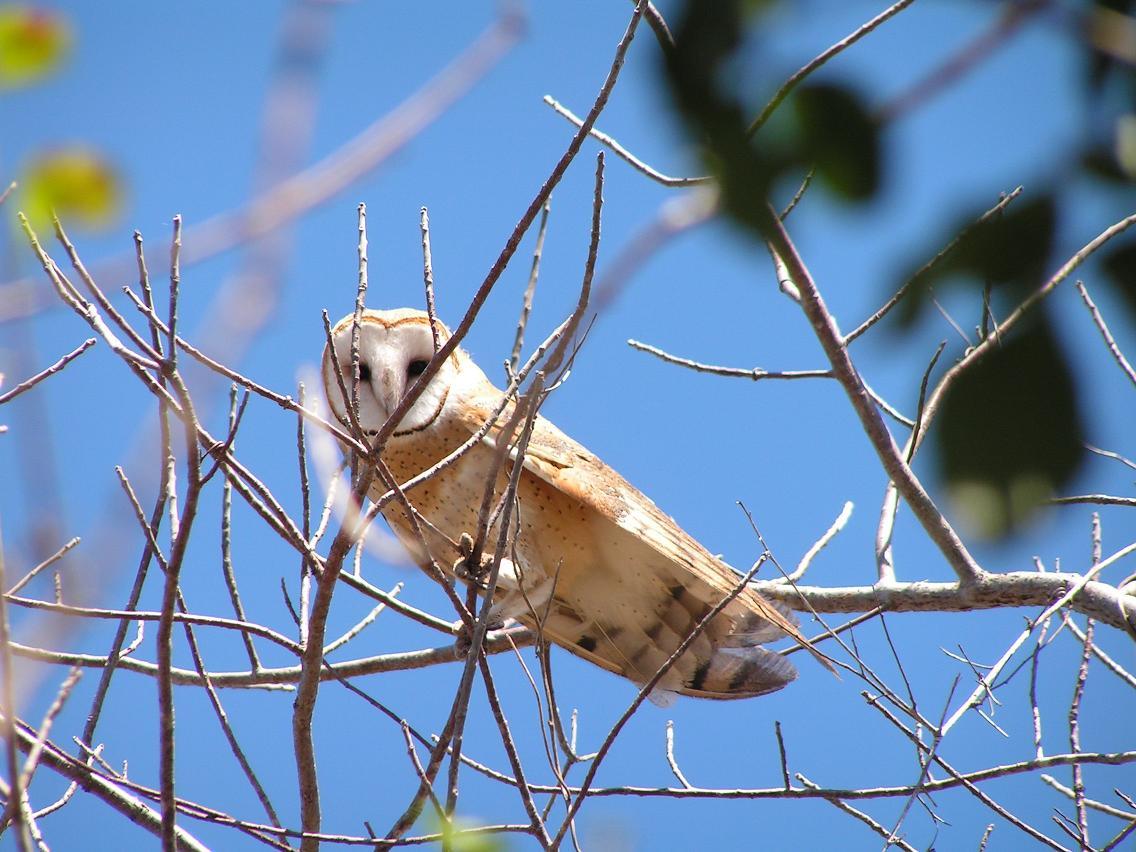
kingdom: Animalia
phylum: Chordata
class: Aves
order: Strigiformes
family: Tytonidae
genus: Tyto
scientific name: Tyto alba
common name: Barn owl
